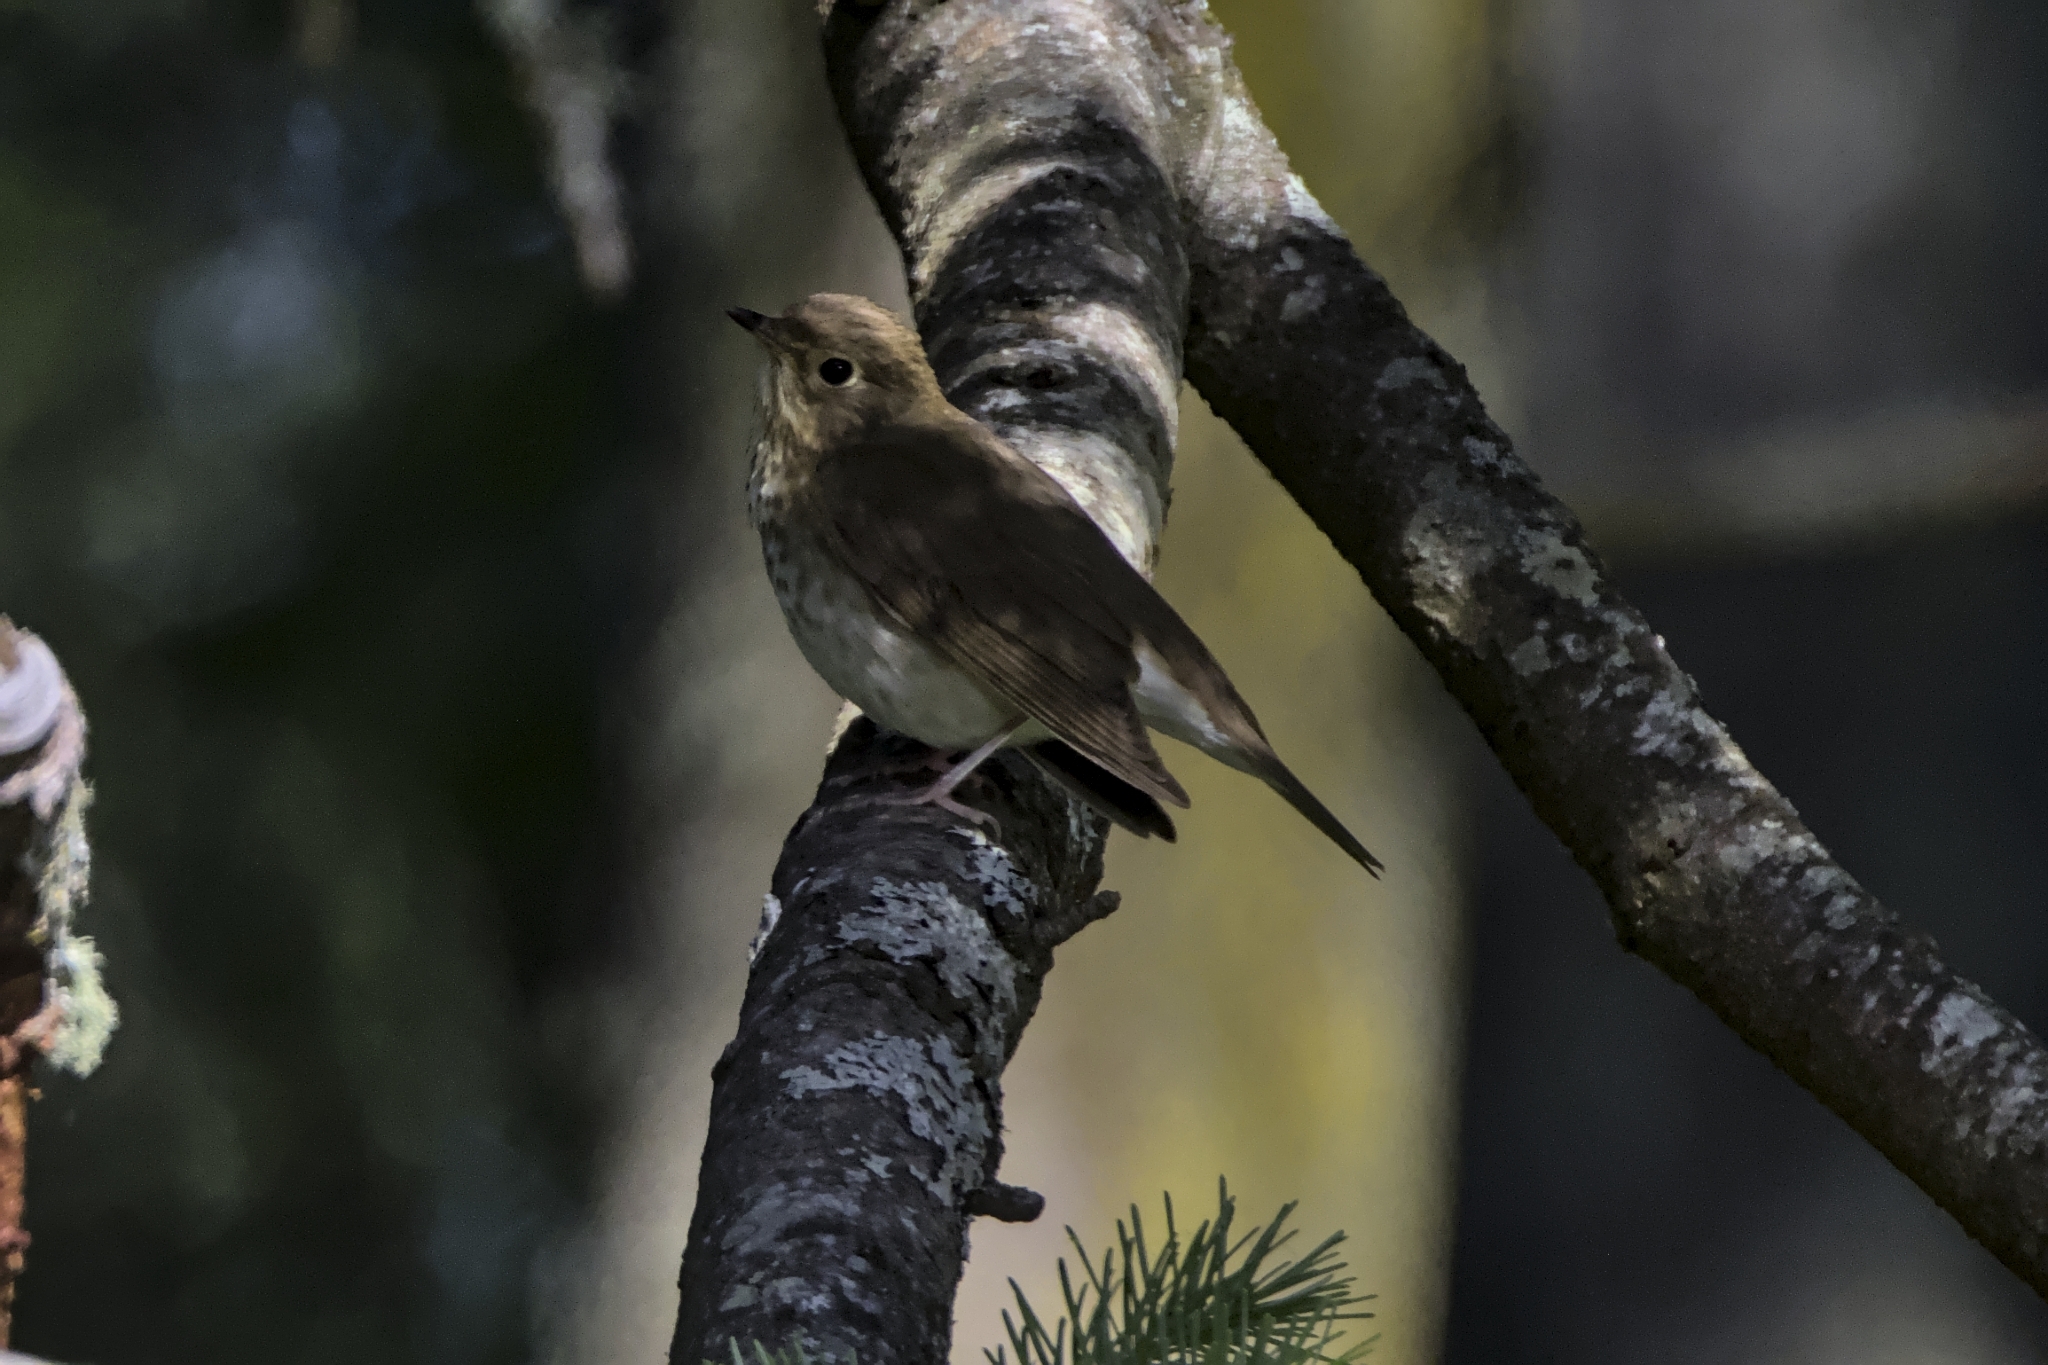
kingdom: Animalia
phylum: Chordata
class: Aves
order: Passeriformes
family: Turdidae
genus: Catharus
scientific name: Catharus ustulatus
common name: Swainson's thrush
